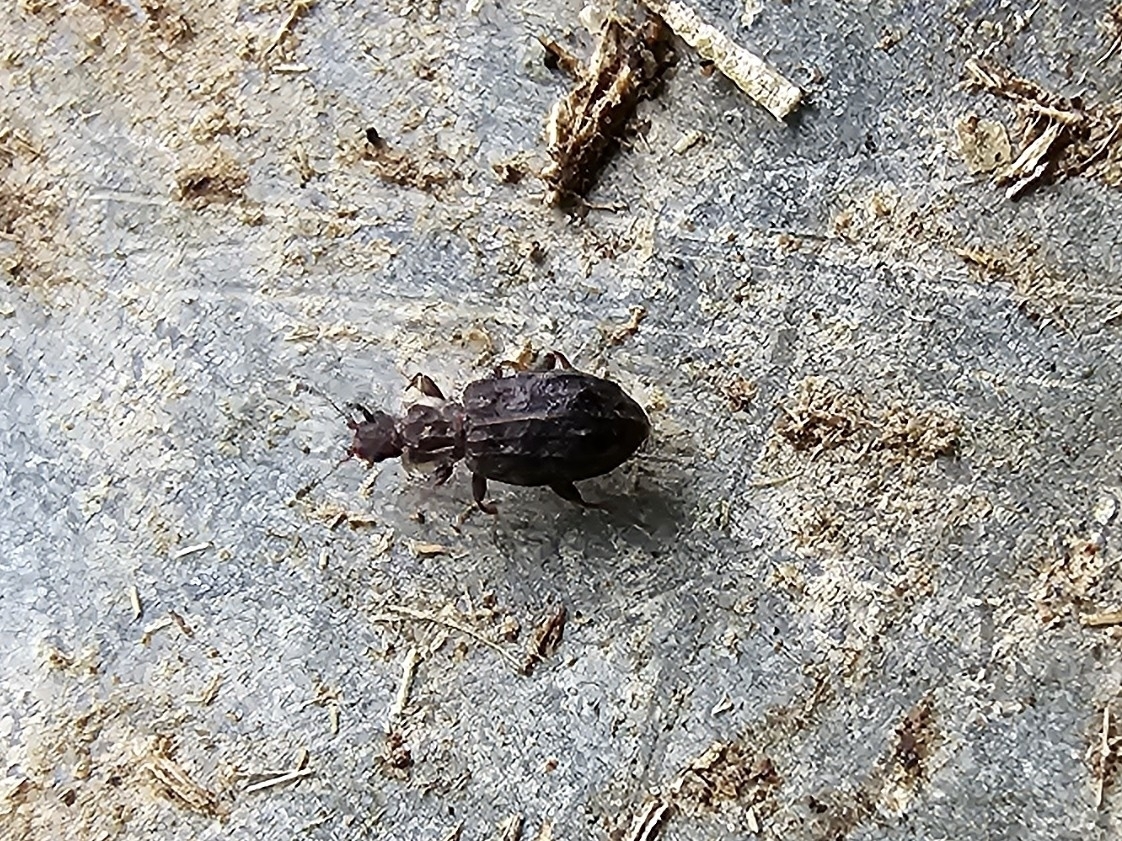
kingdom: Animalia
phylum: Arthropoda
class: Insecta
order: Coleoptera
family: Latridiidae
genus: Cartodere
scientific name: Cartodere nodifer
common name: Humpbacked minute scavenger beetle
